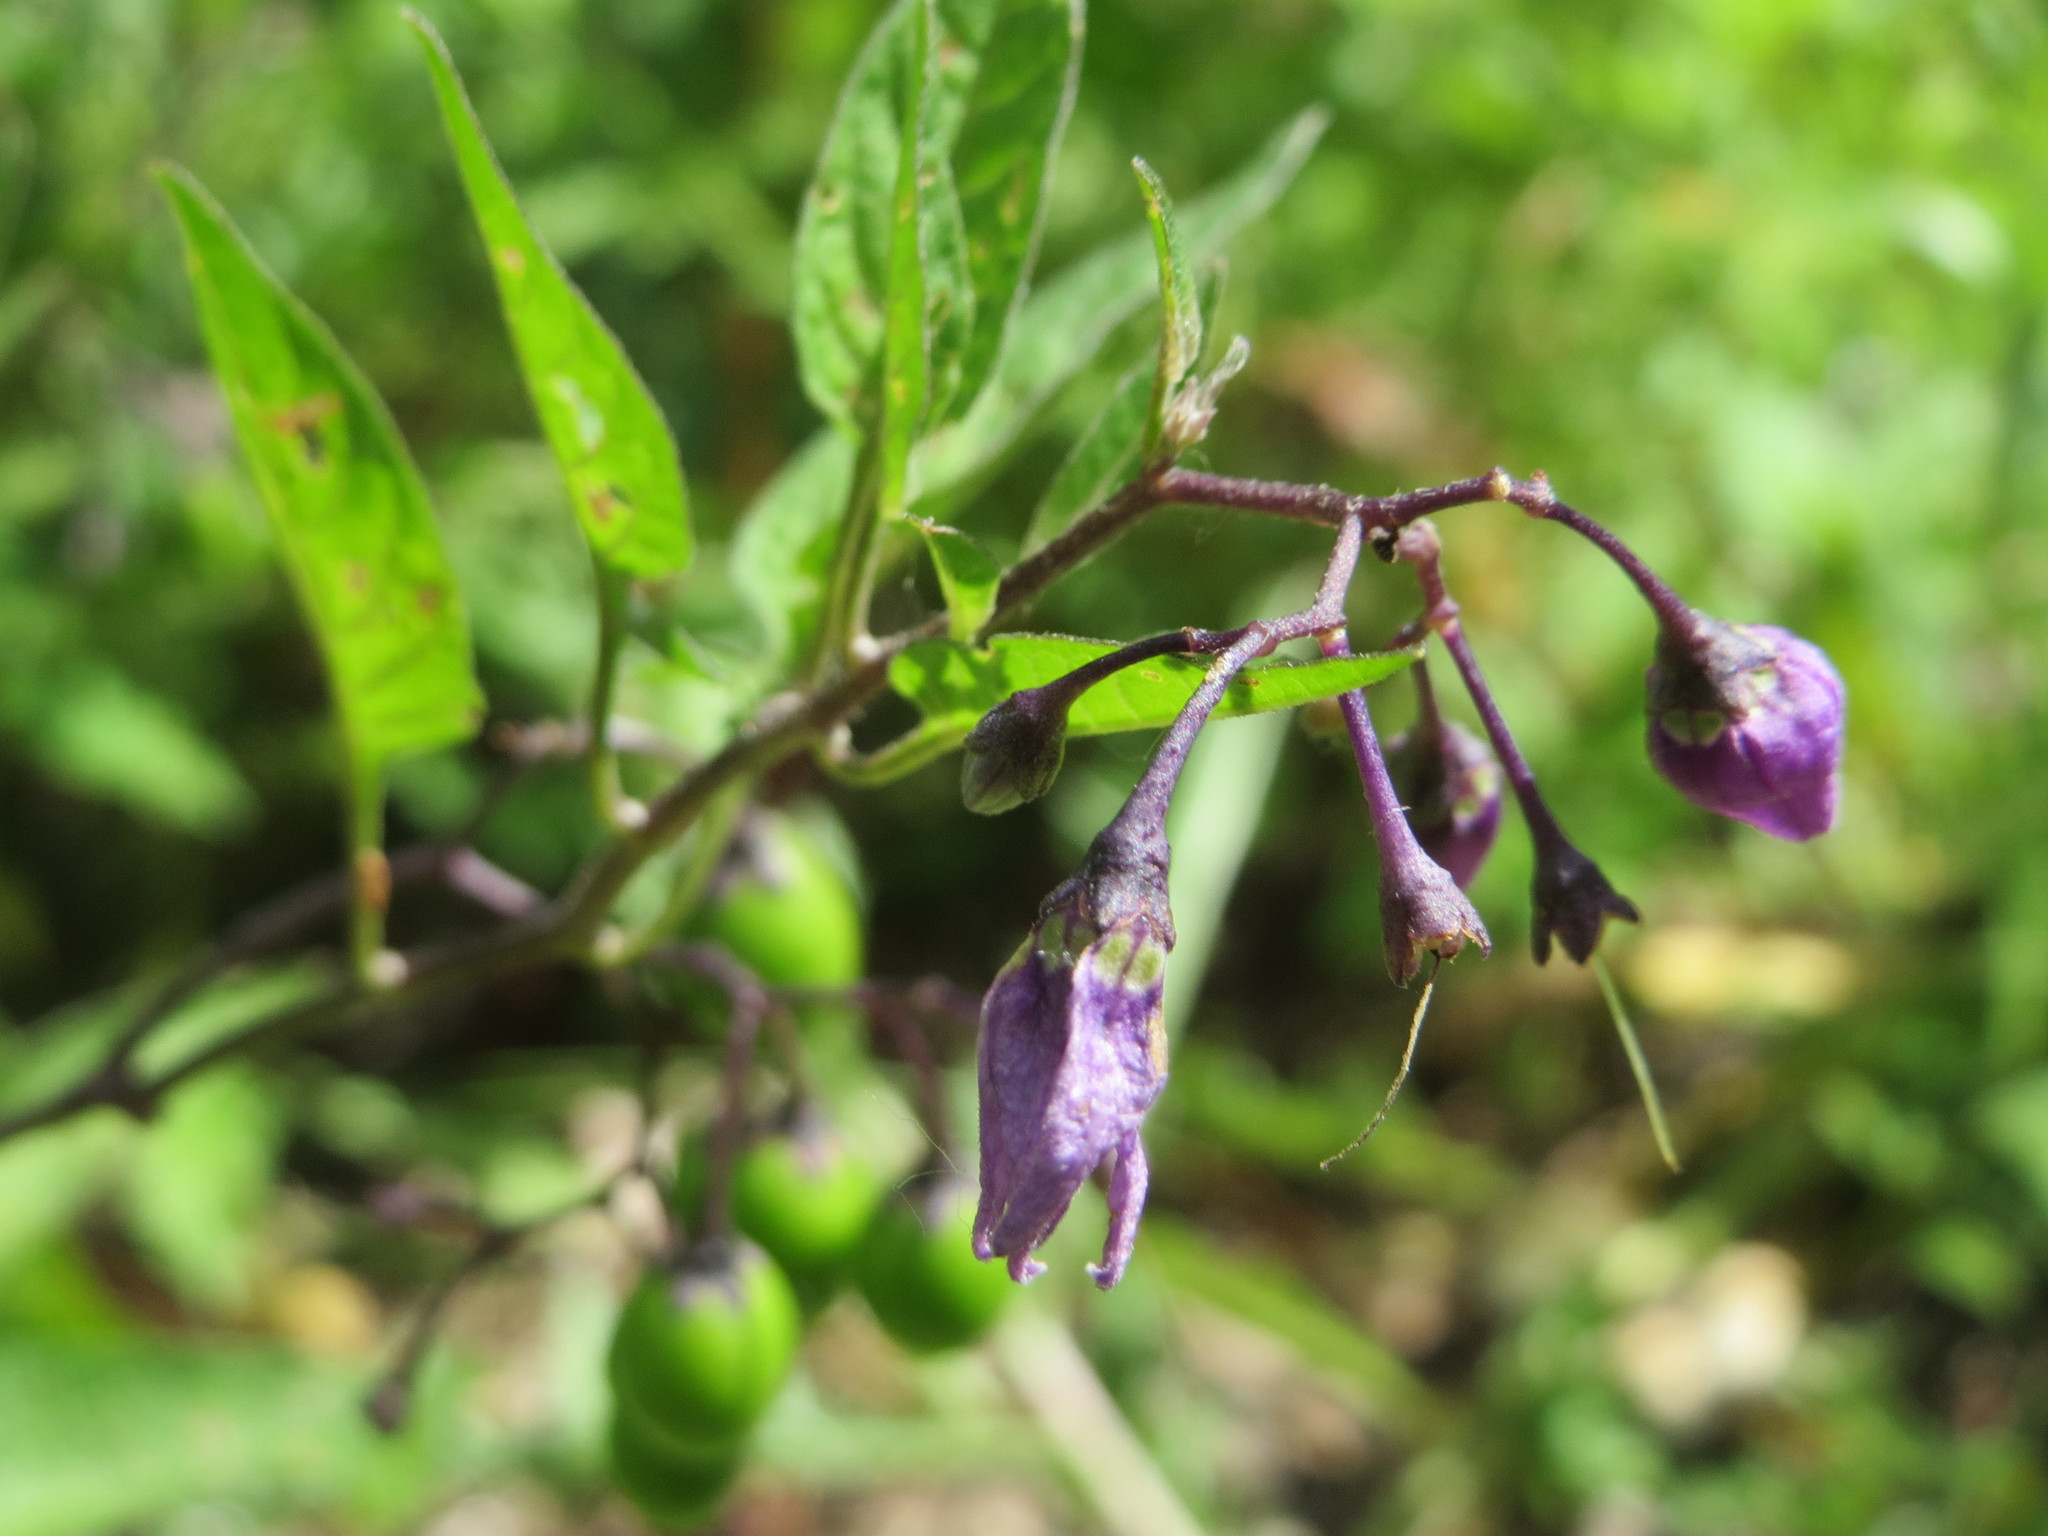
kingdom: Plantae
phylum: Tracheophyta
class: Magnoliopsida
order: Solanales
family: Solanaceae
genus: Solanum
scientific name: Solanum dulcamara
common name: Climbing nightshade
